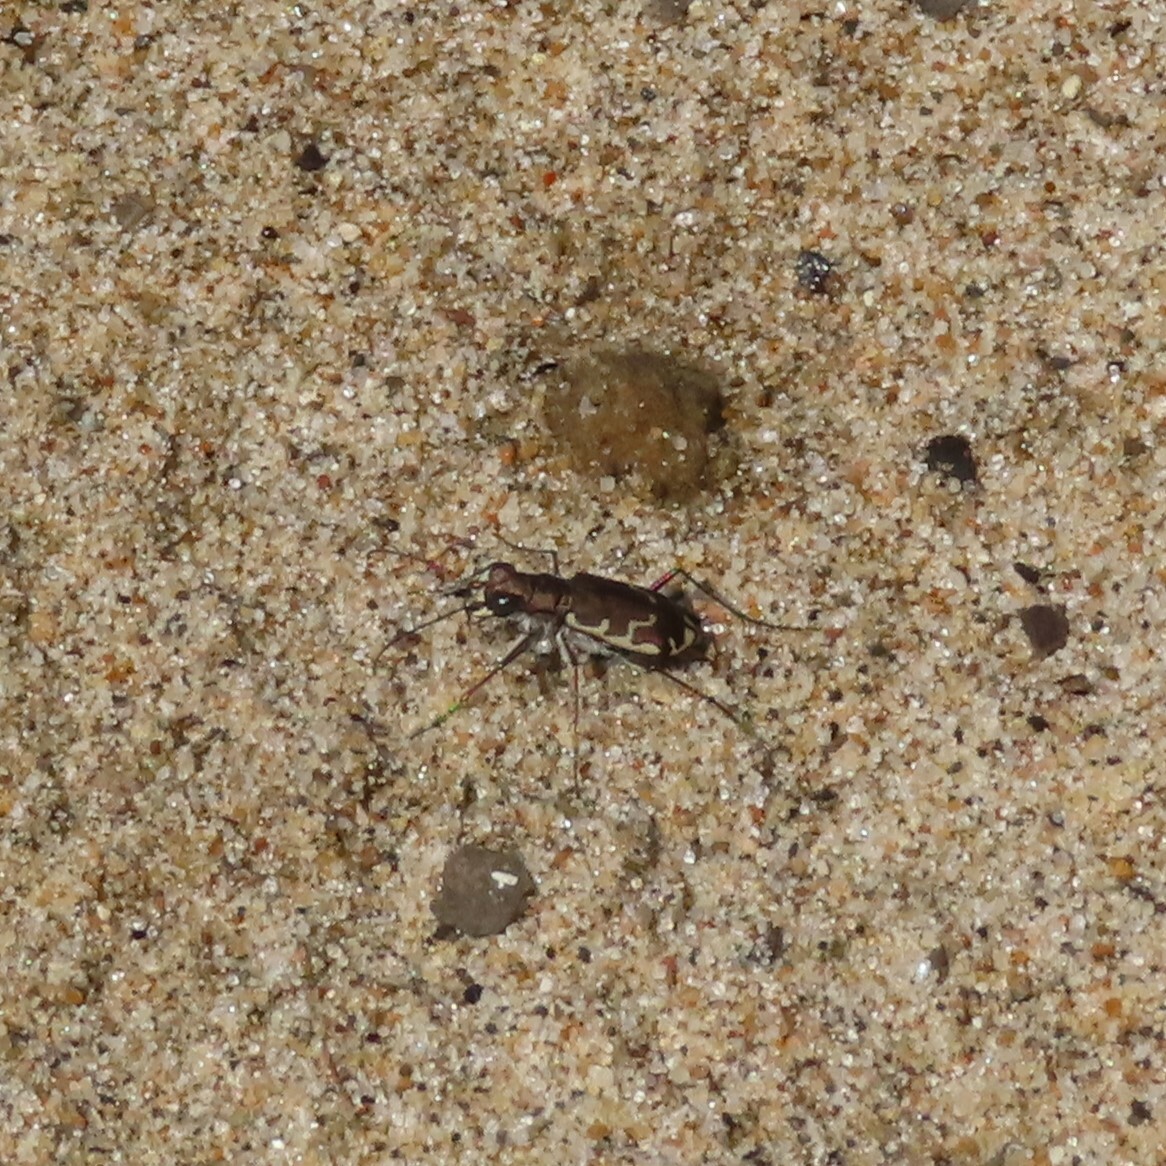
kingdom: Animalia
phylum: Arthropoda
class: Insecta
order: Coleoptera
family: Carabidae
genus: Cicindela
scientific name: Cicindela repanda
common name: Bronzed tiger beetle
